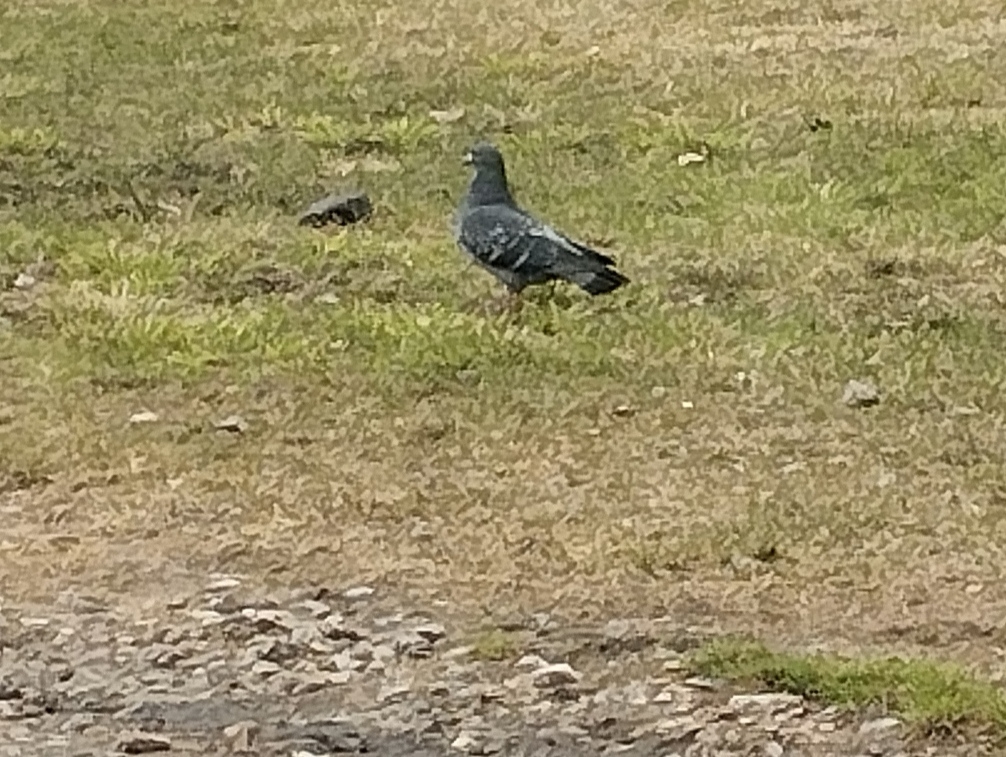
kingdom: Animalia
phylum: Chordata
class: Aves
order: Columbiformes
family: Columbidae
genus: Columba
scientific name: Columba livia
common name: Rock pigeon
